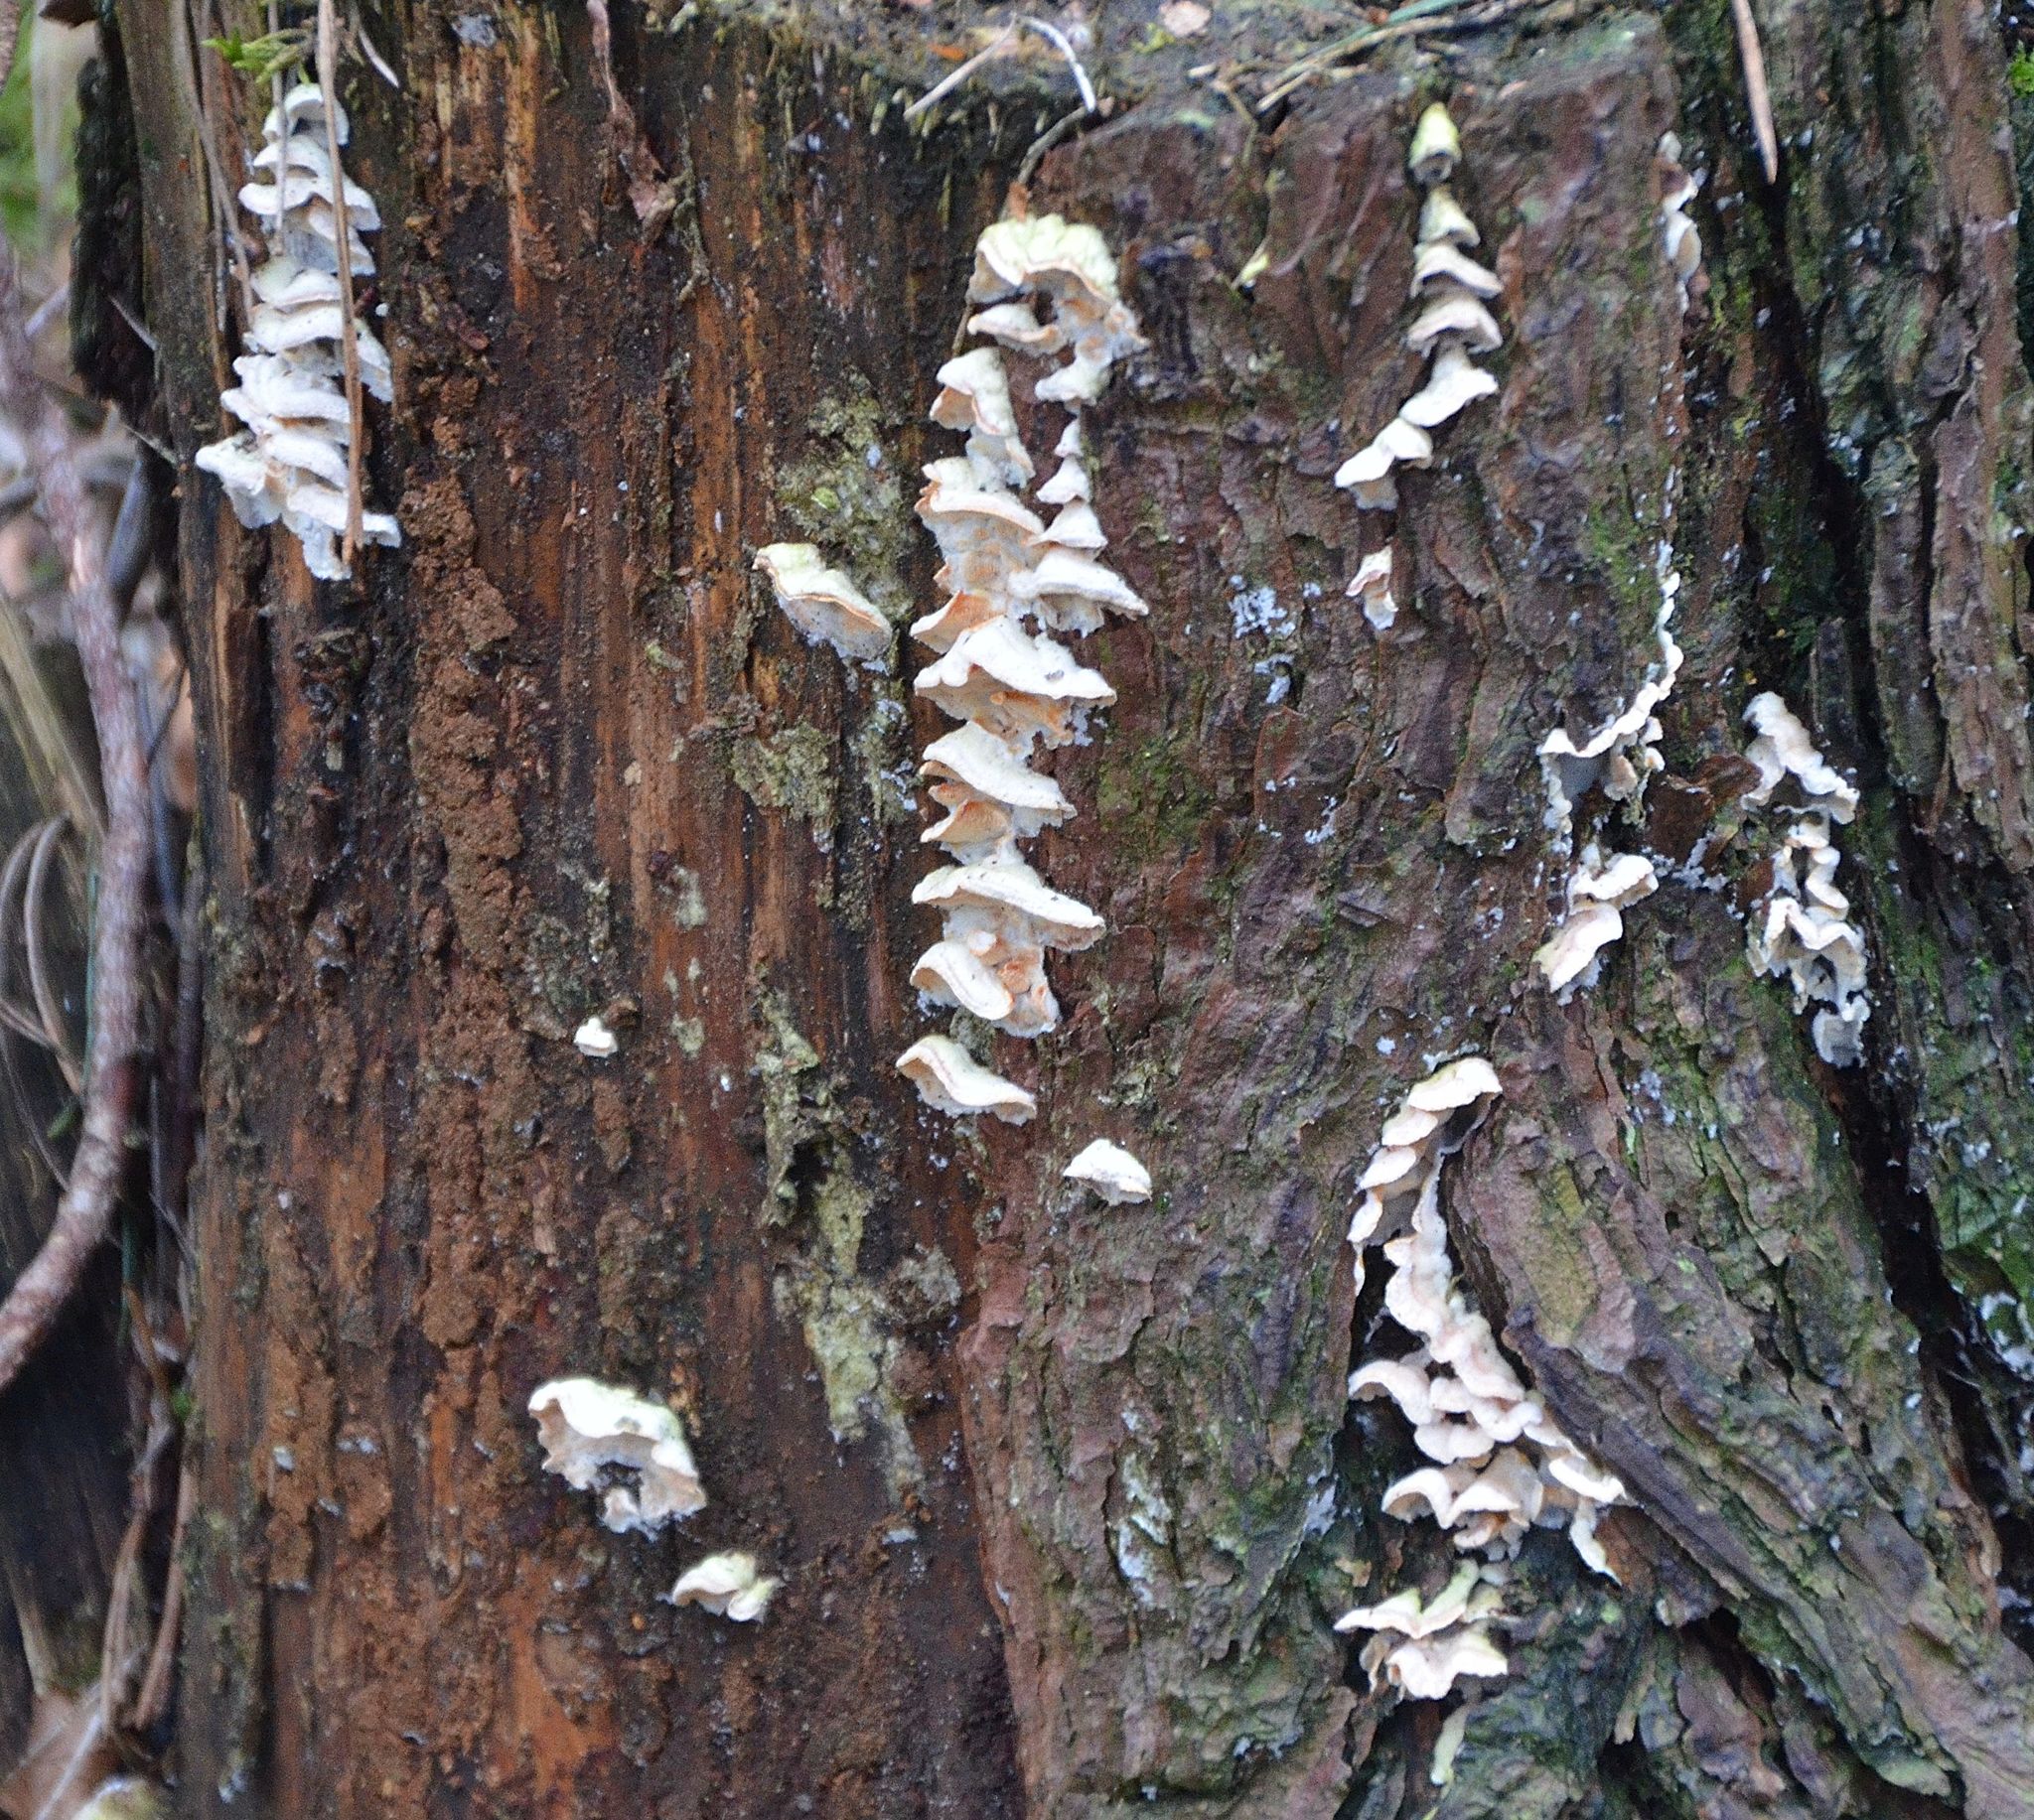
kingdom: Fungi
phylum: Basidiomycota
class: Agaricomycetes
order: Polyporales
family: Incrustoporiaceae
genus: Skeletocutis
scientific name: Skeletocutis amorpha
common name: Rusty crust
